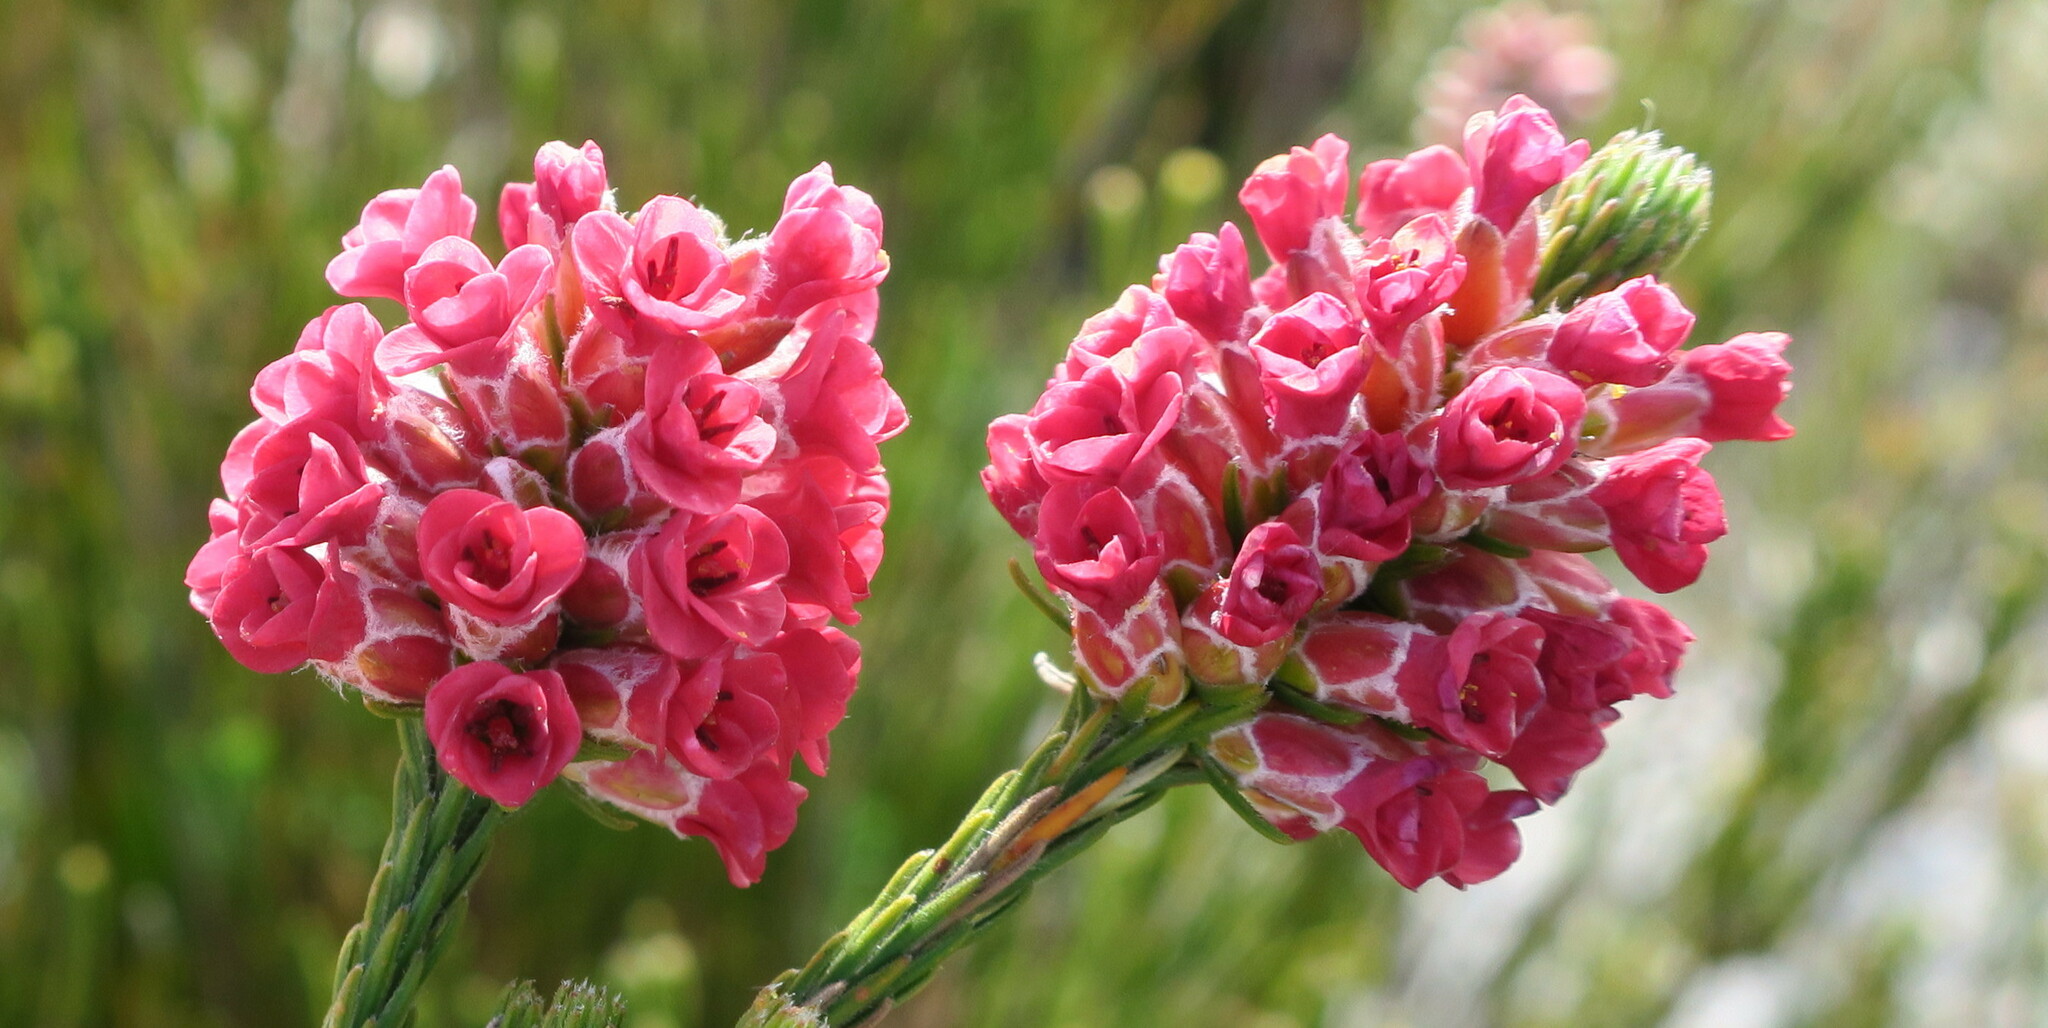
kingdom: Plantae
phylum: Tracheophyta
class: Magnoliopsida
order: Bruniales
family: Bruniaceae
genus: Audouinia
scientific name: Audouinia capitata
